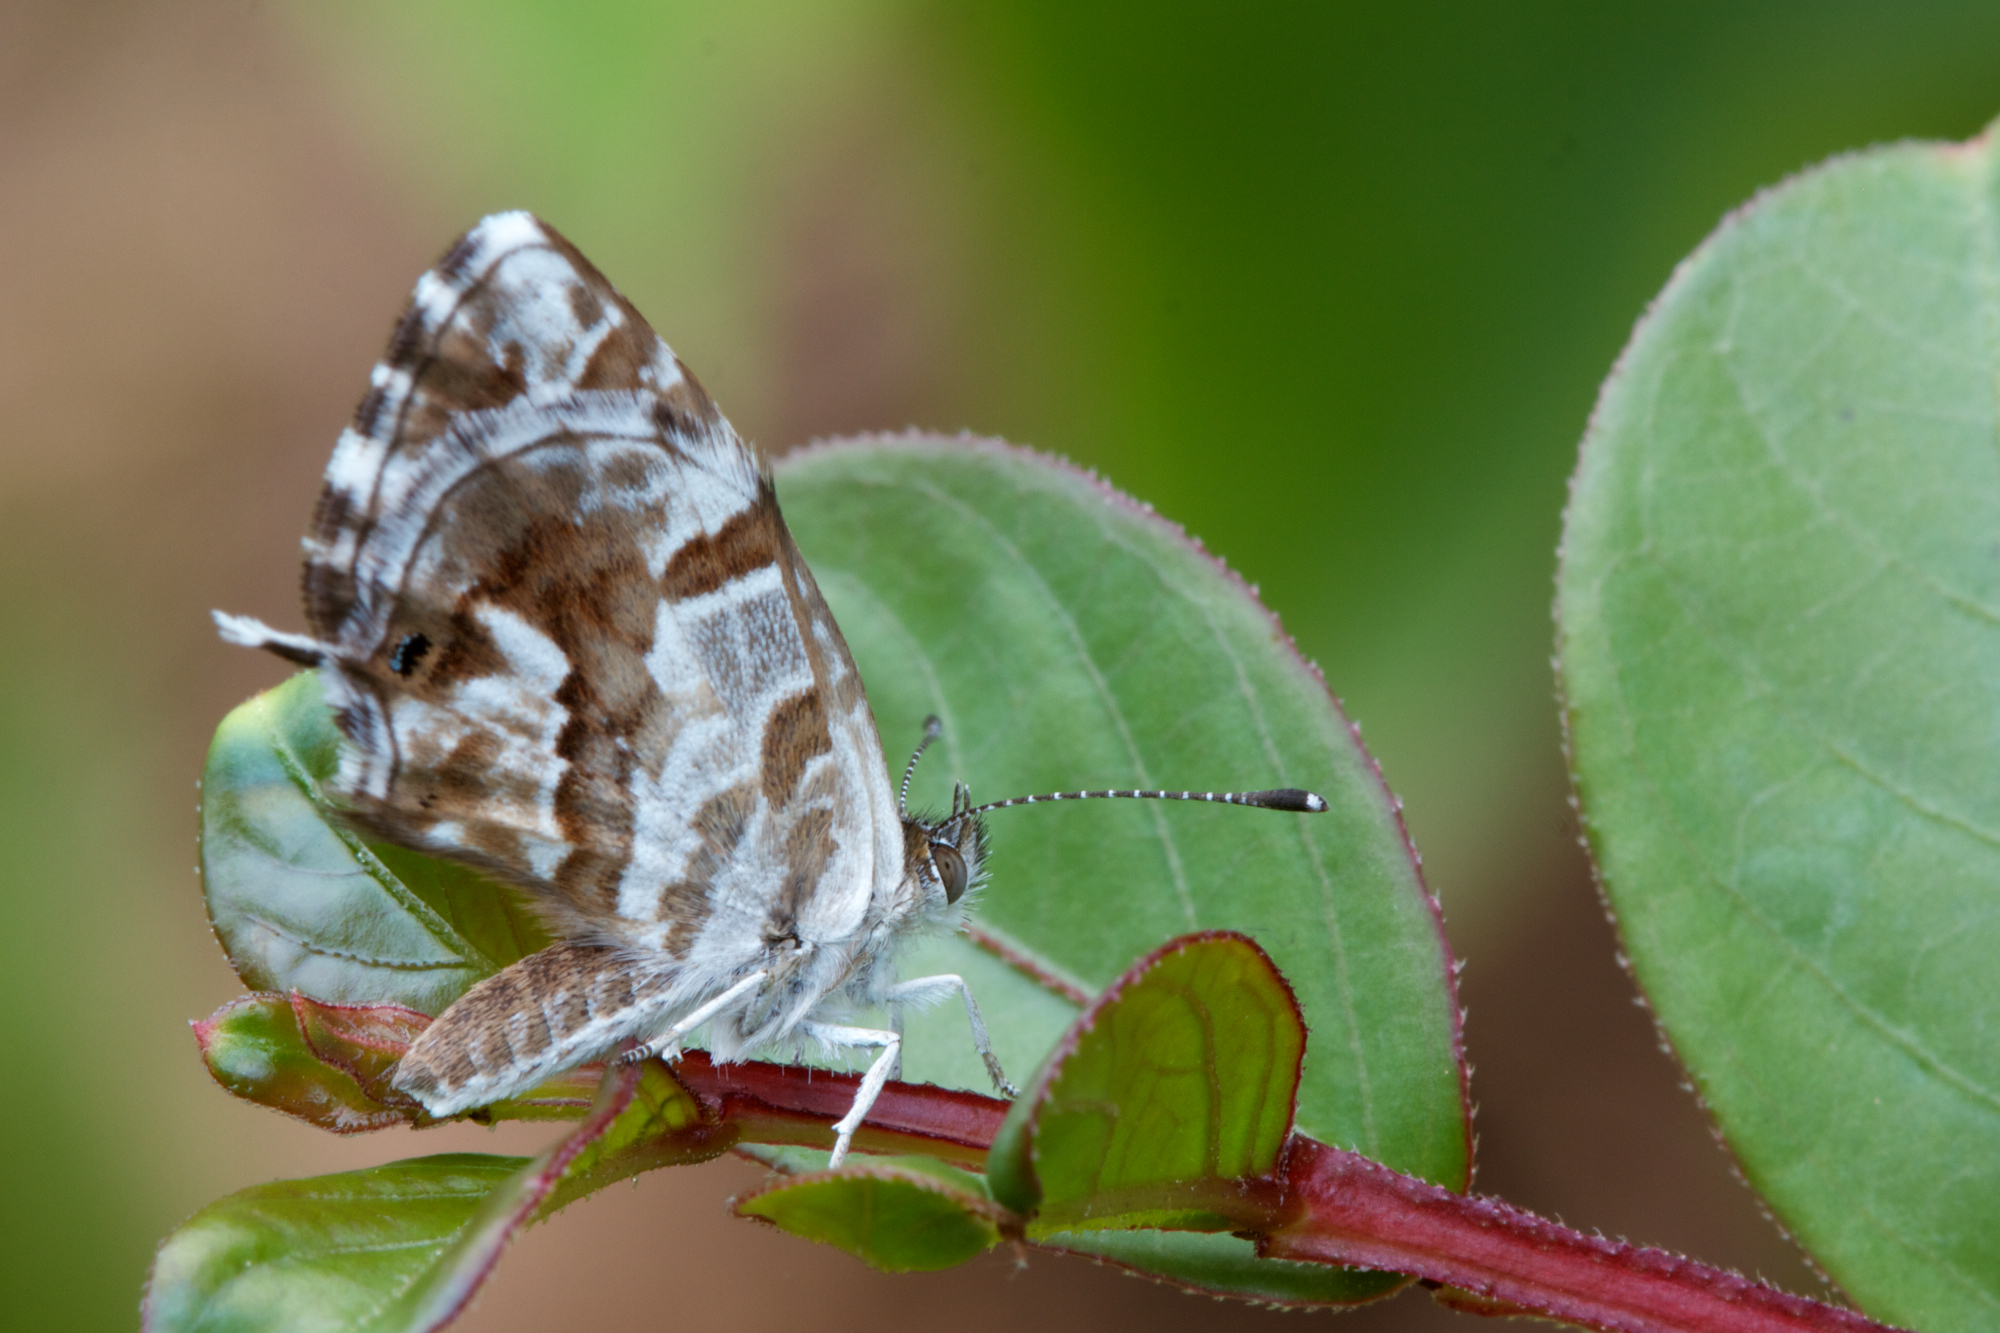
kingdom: Animalia
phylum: Arthropoda
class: Insecta
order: Lepidoptera
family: Lycaenidae
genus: Cacyreus
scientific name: Cacyreus marshalli
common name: Geranium bronze
